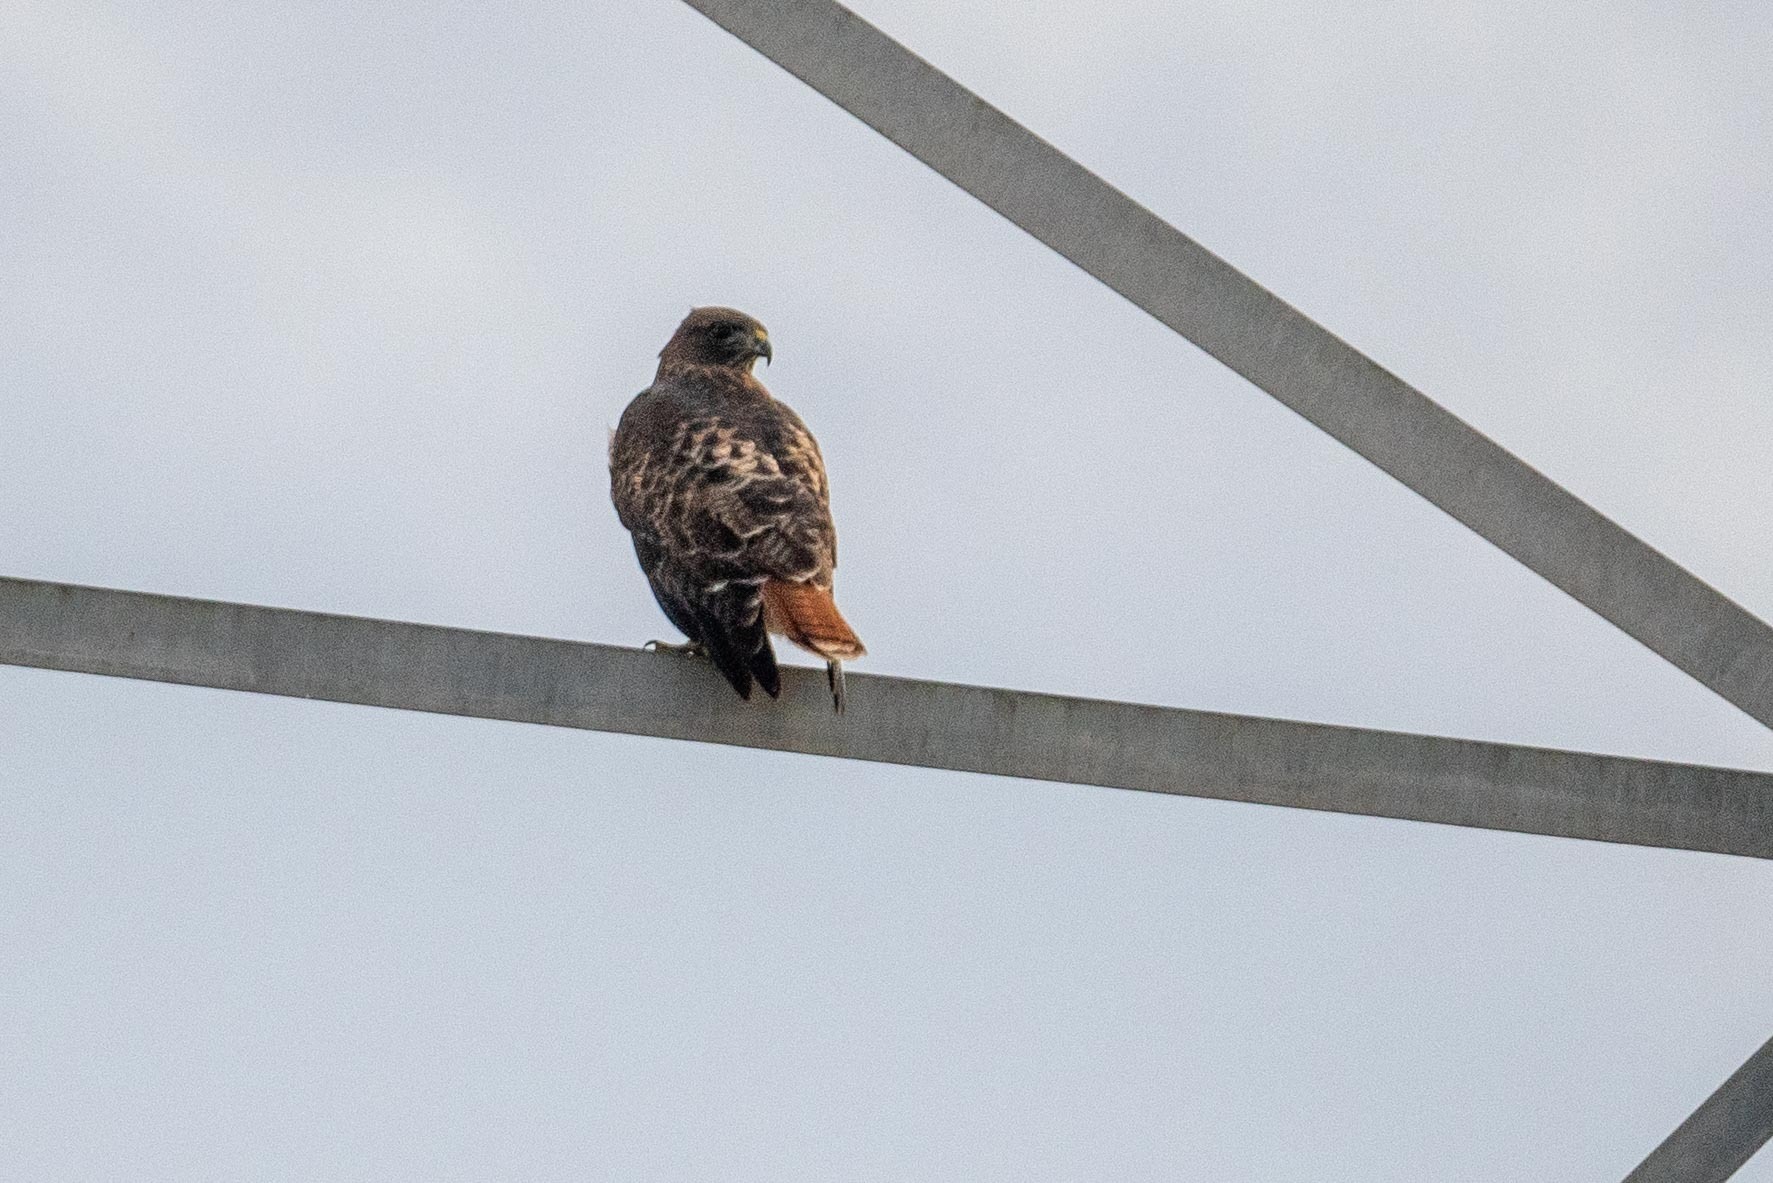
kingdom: Animalia
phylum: Chordata
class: Aves
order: Accipitriformes
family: Accipitridae
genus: Buteo
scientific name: Buteo jamaicensis
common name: Red-tailed hawk
